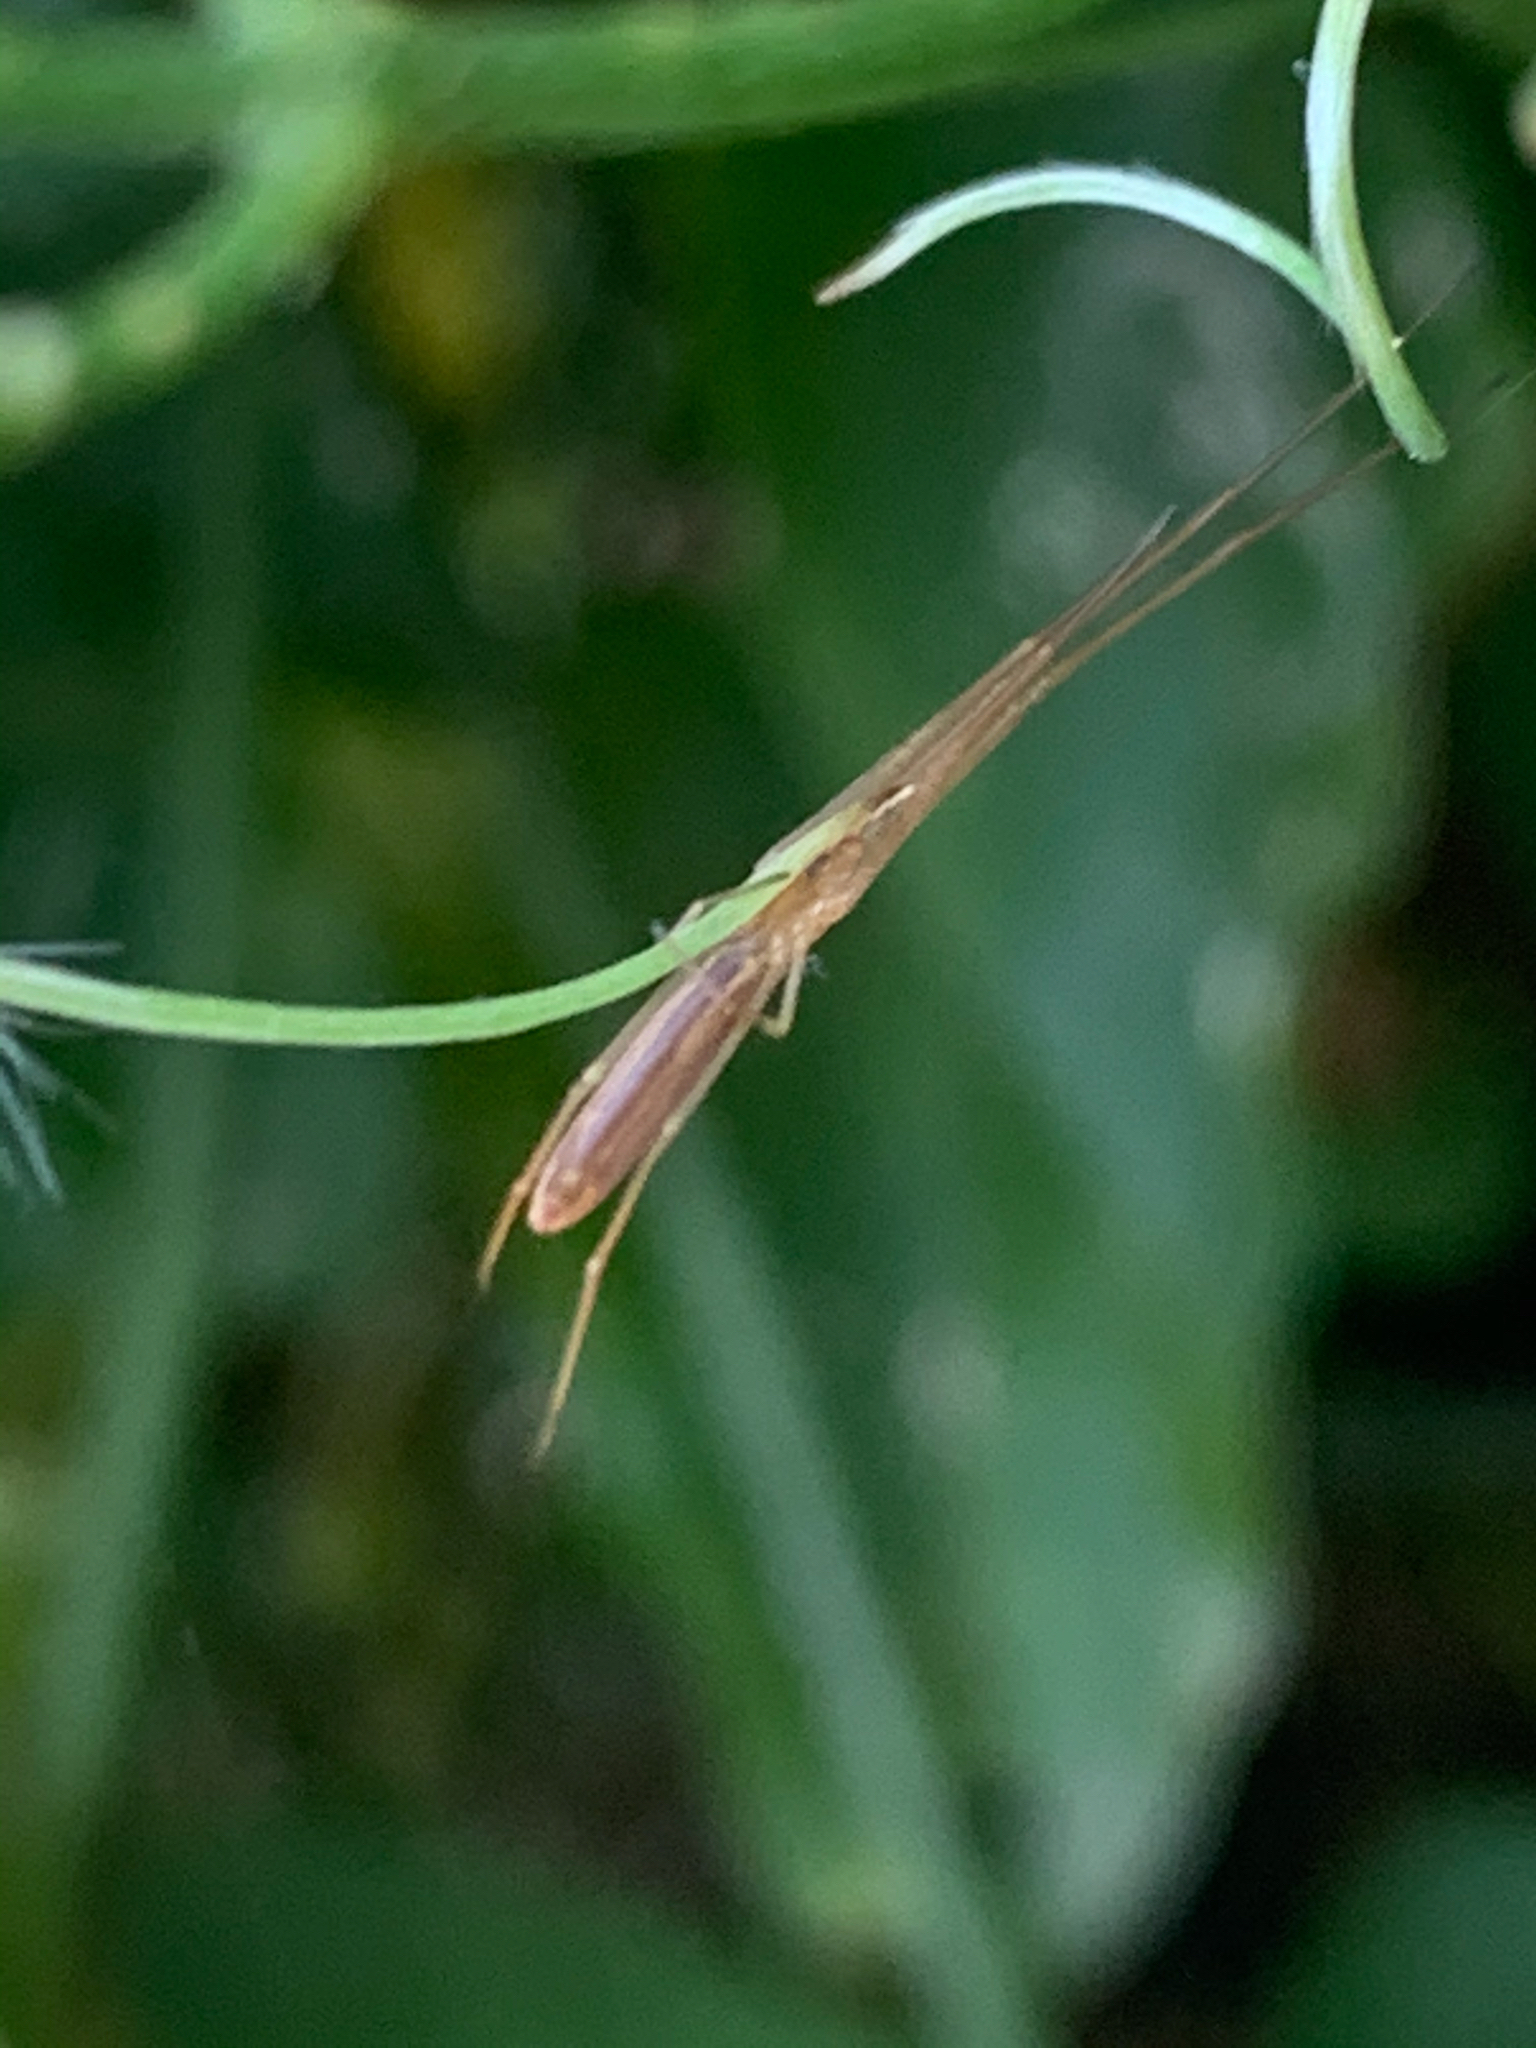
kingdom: Animalia
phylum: Arthropoda
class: Arachnida
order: Araneae
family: Tetragnathidae
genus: Tetragnatha
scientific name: Tetragnatha
